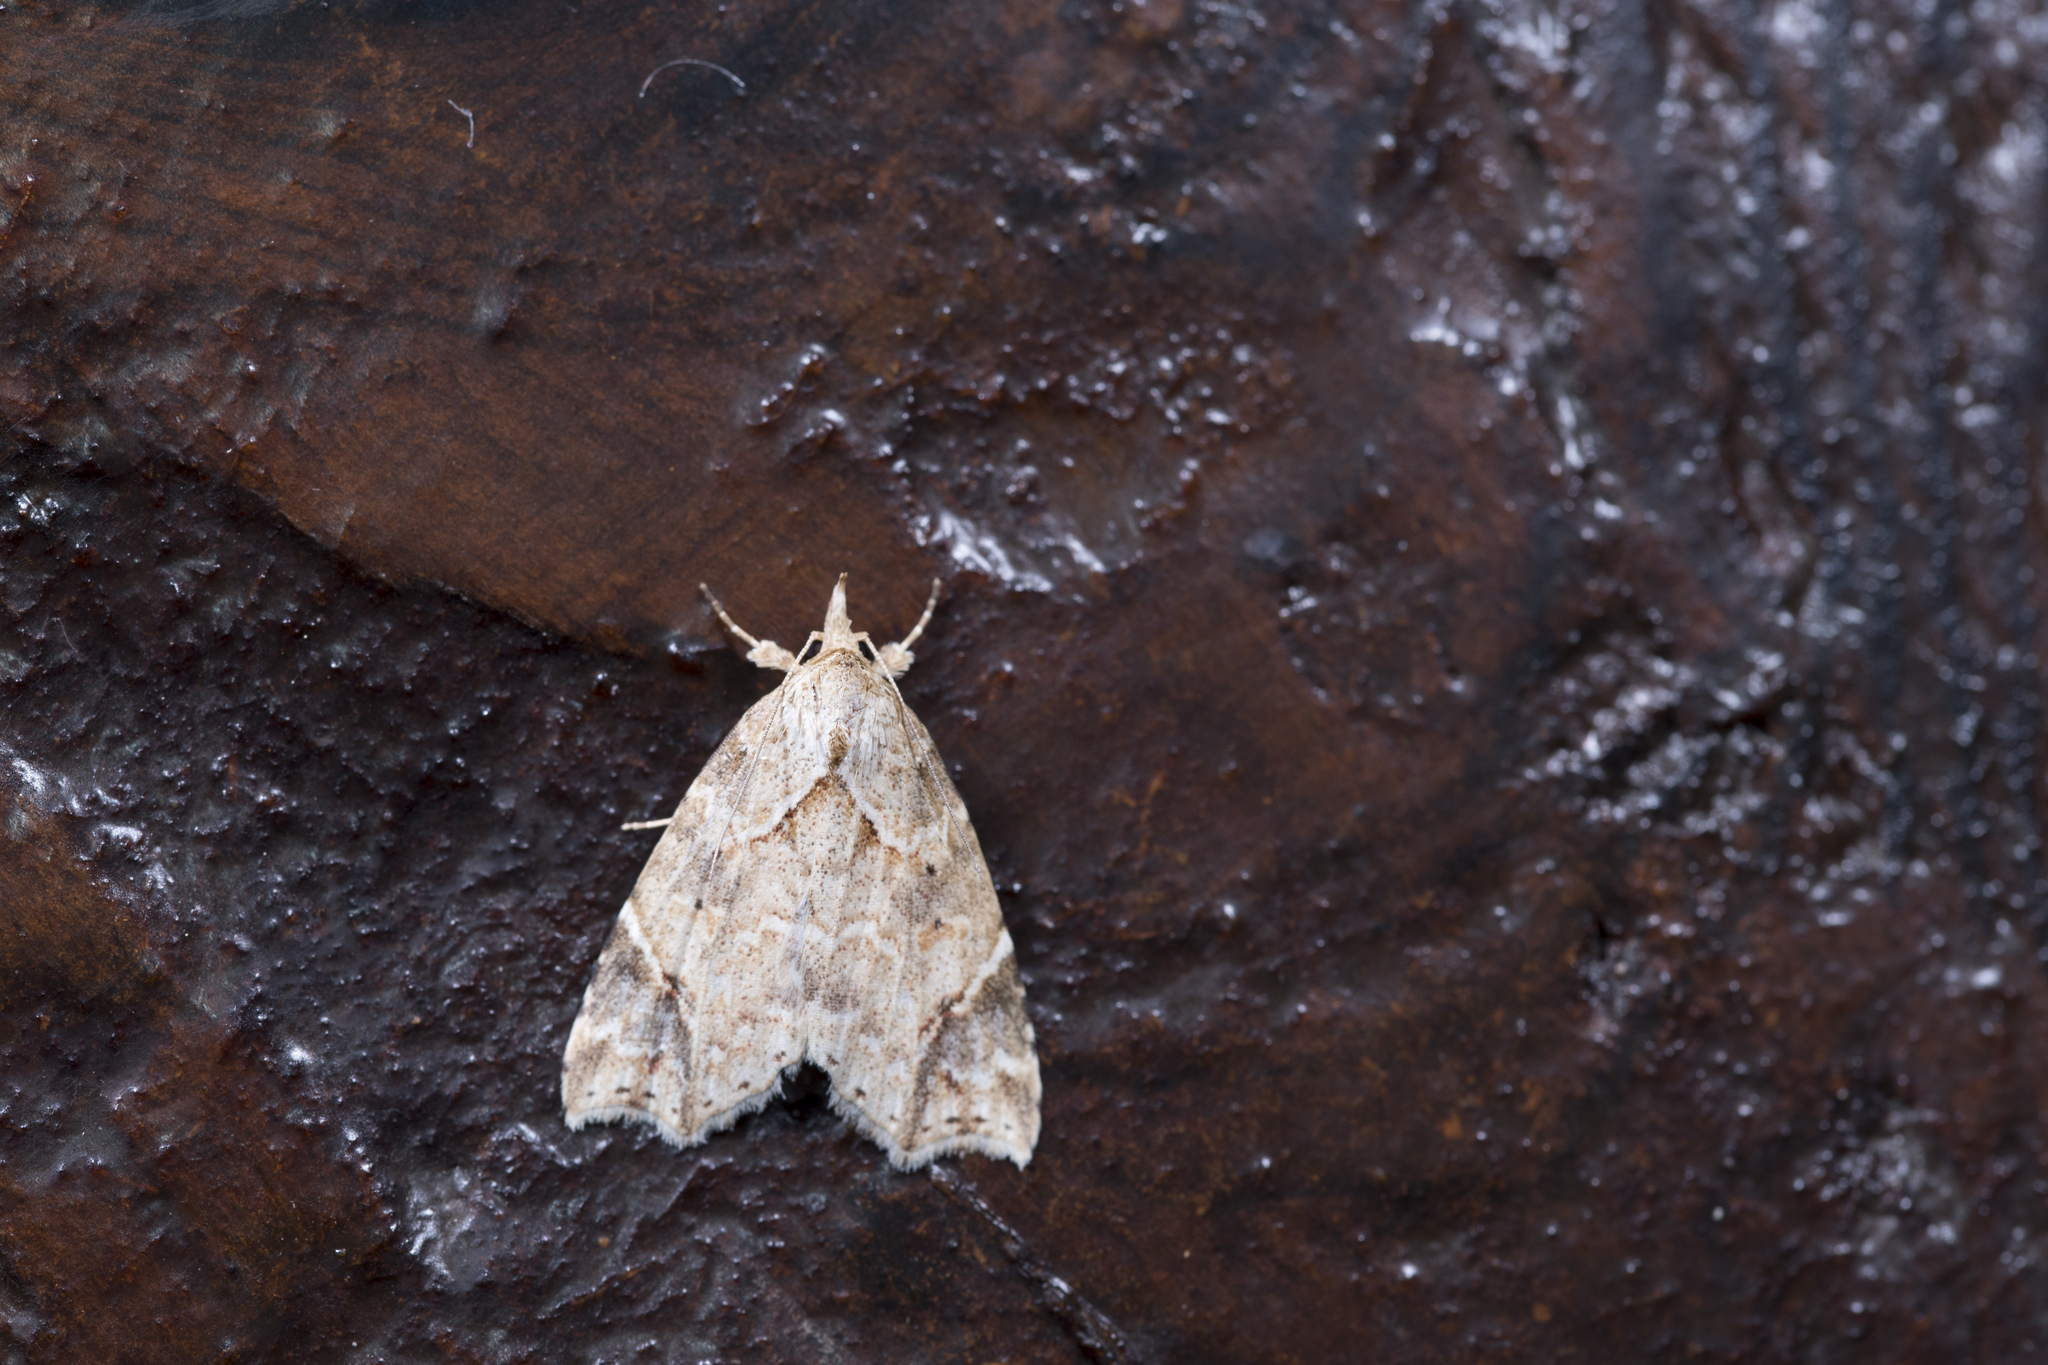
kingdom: Animalia
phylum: Arthropoda
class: Insecta
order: Lepidoptera
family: Erebidae
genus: Olulis
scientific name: Olulis
